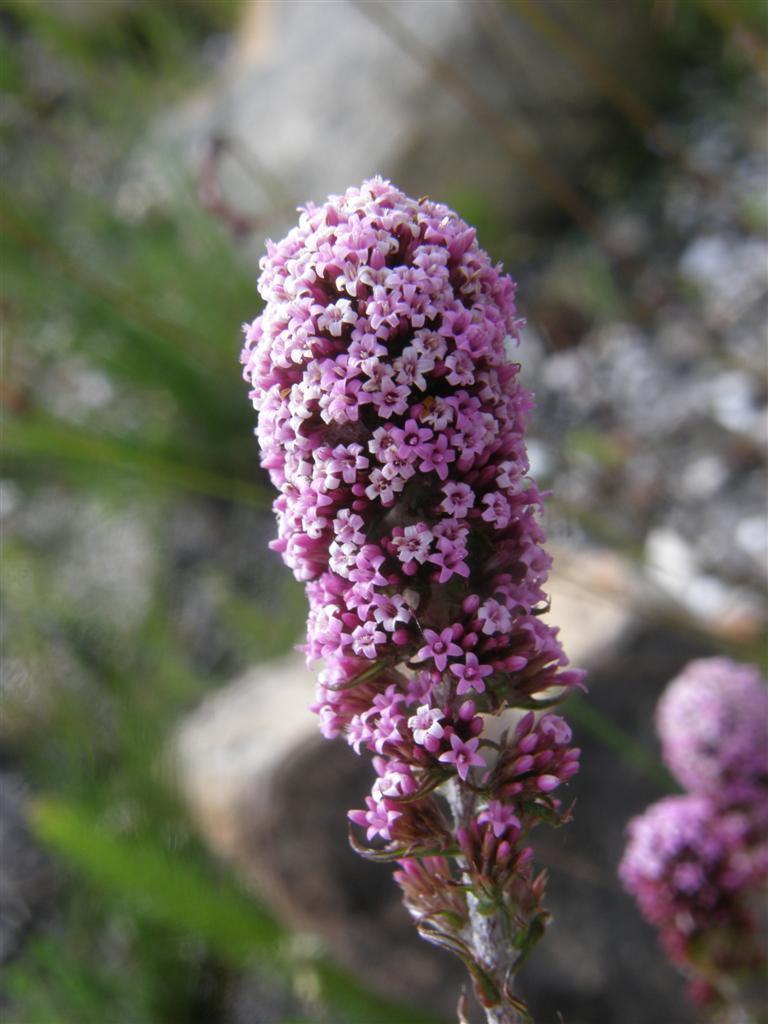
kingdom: Plantae
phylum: Tracheophyta
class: Magnoliopsida
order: Asterales
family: Asteraceae
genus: Stoebe
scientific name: Stoebe capitata
